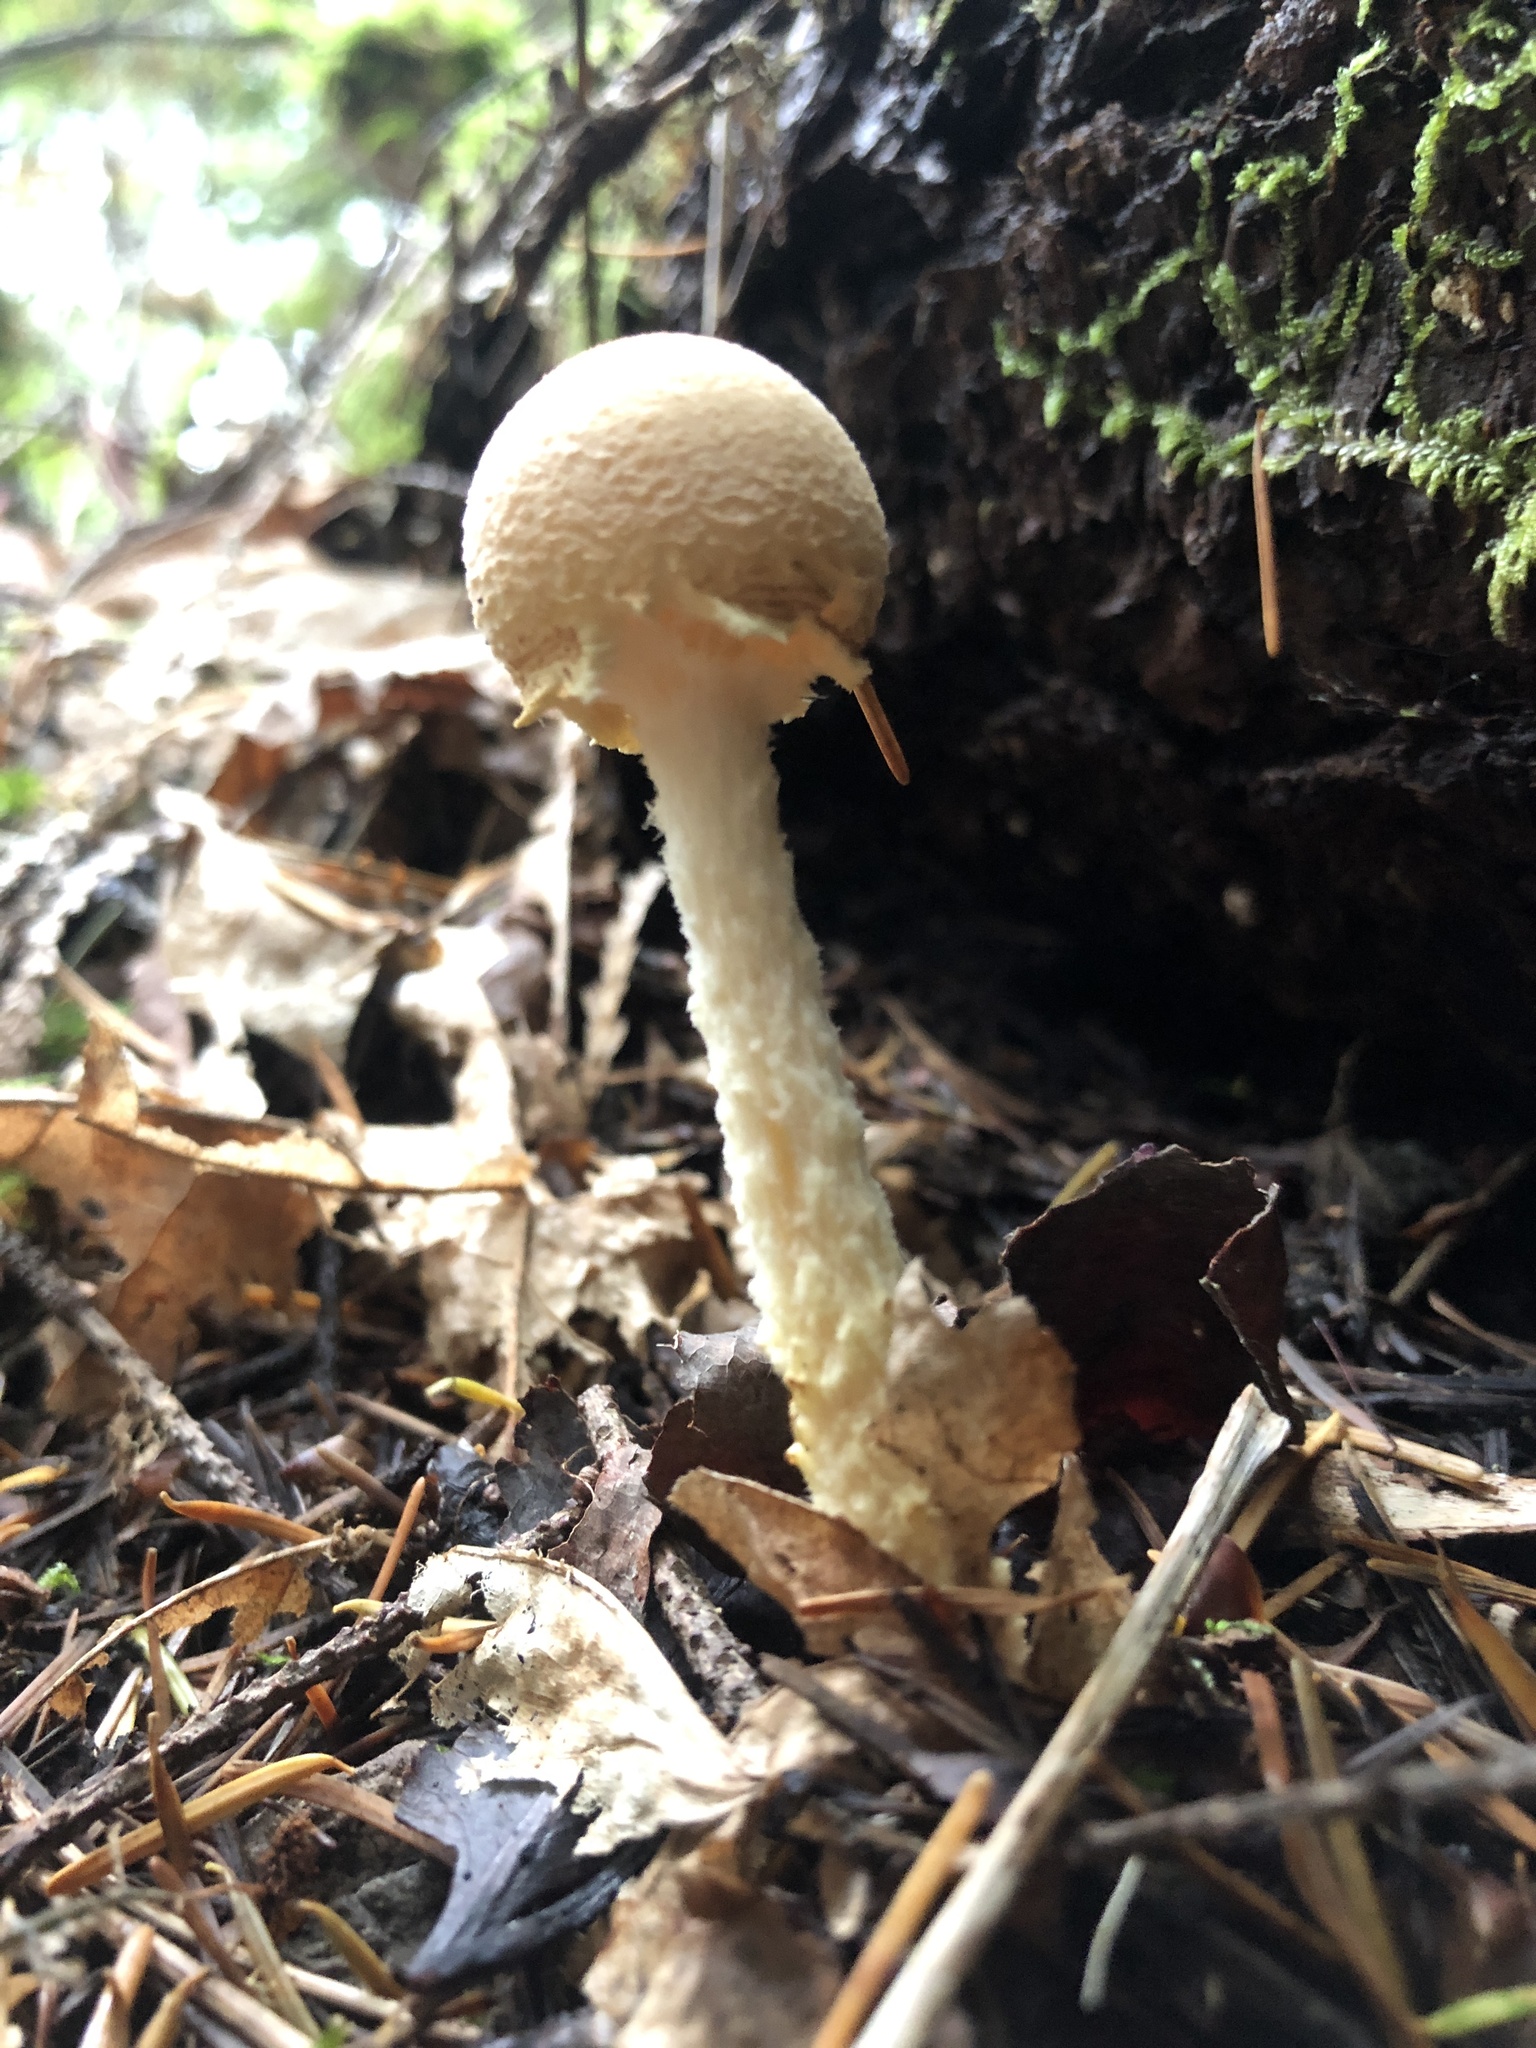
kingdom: Fungi
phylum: Basidiomycota
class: Agaricomycetes
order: Agaricales
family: Agaricaceae
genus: Lepiota
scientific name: Lepiota magnispora
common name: Yellowfoot dapperling
